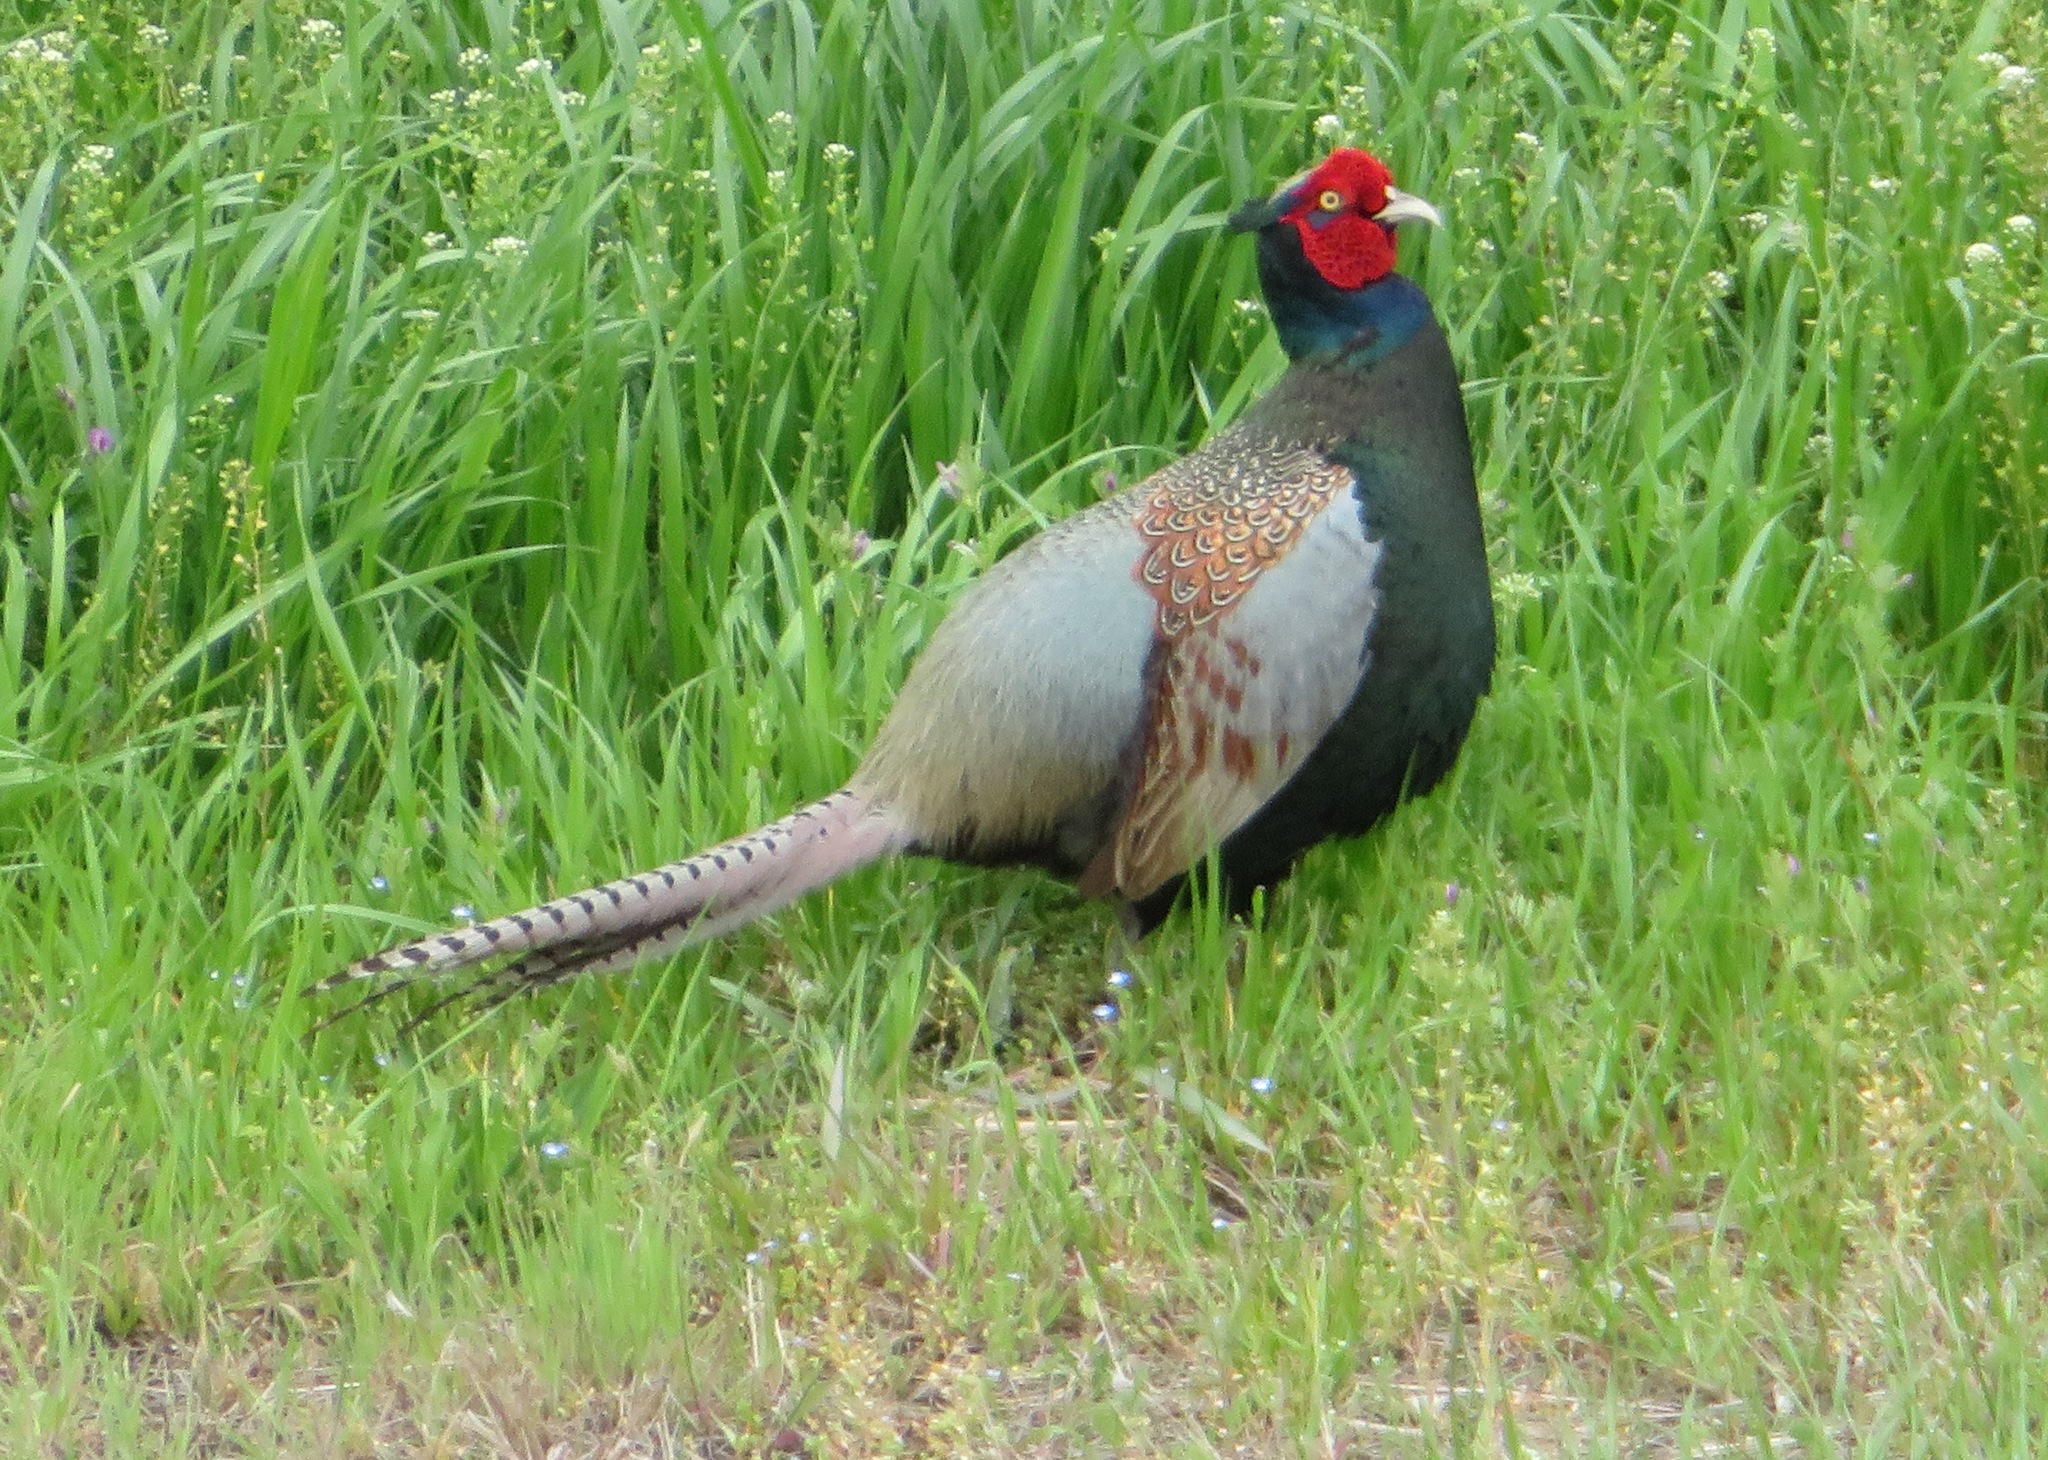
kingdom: Animalia
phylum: Chordata
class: Aves
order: Galliformes
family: Phasianidae
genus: Phasianus
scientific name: Phasianus versicolor
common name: Green pheasant
